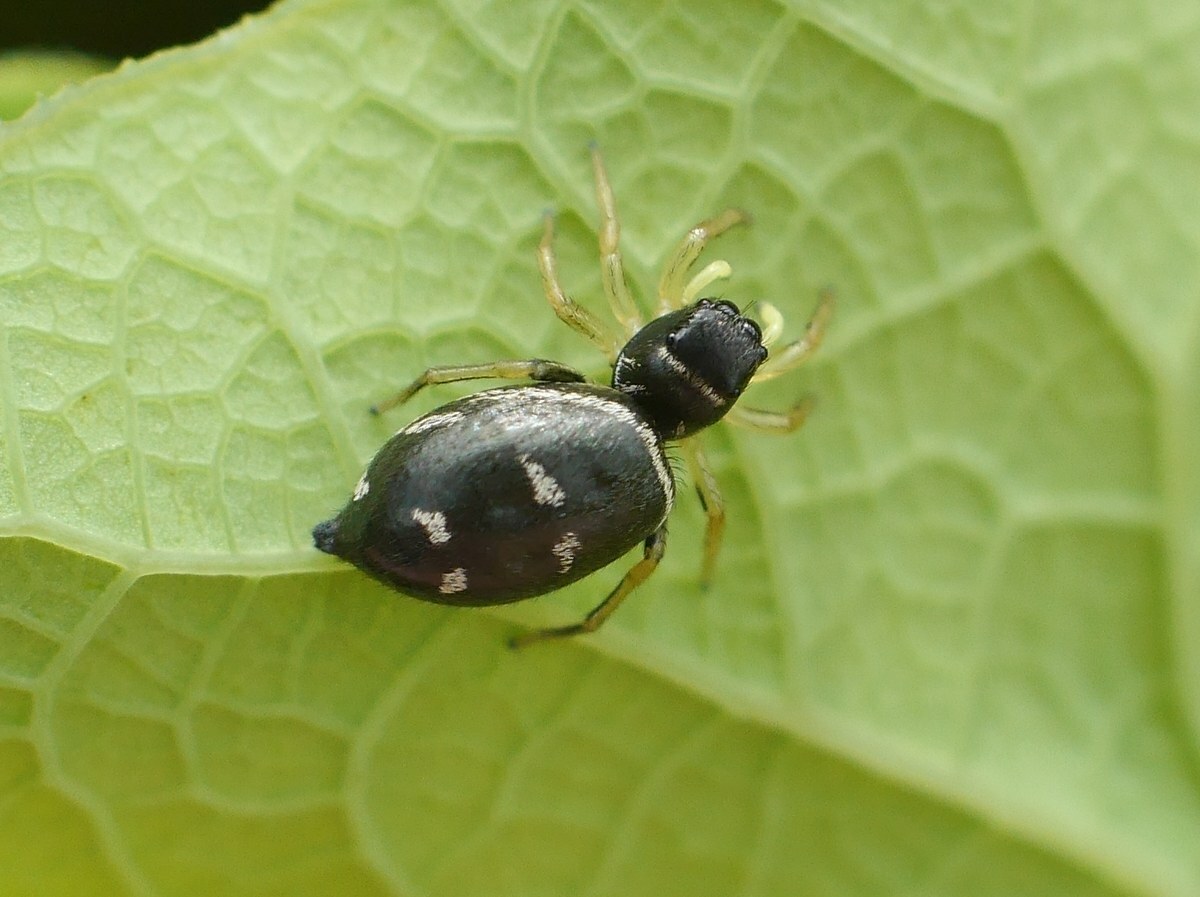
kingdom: Animalia
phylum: Arthropoda
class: Arachnida
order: Araneae
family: Salticidae
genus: Heliophanus
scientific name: Heliophanus cupreus
